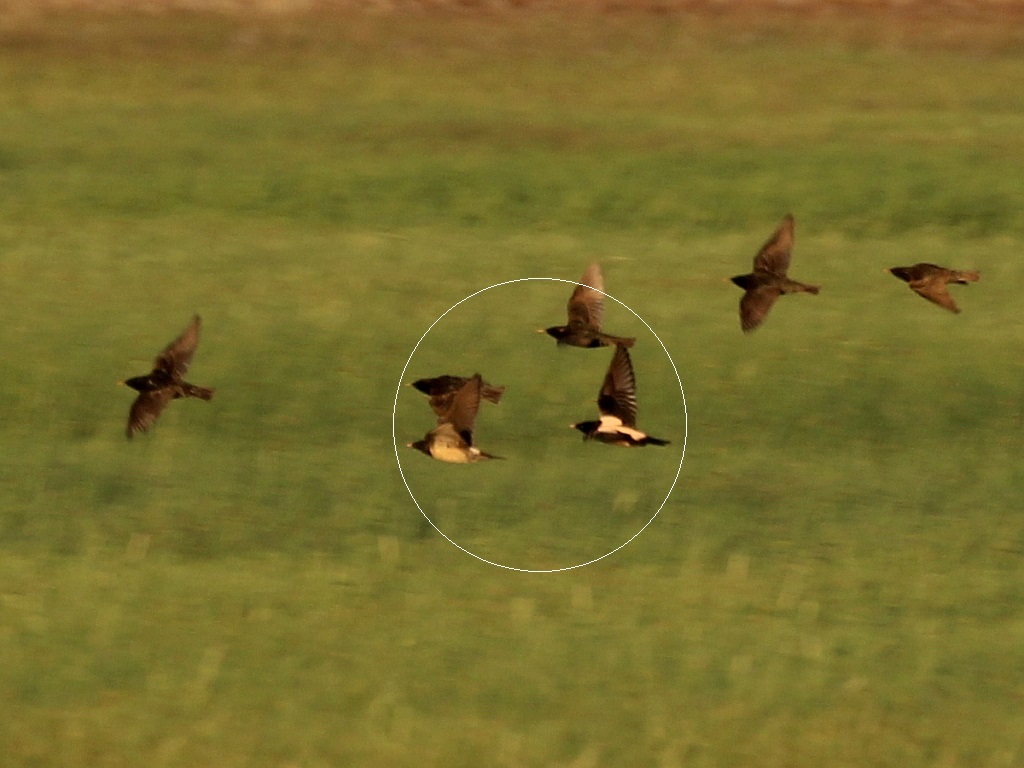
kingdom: Animalia
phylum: Chordata
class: Aves
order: Passeriformes
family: Sturnidae
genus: Pastor
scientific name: Pastor roseus
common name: Rosy starling
